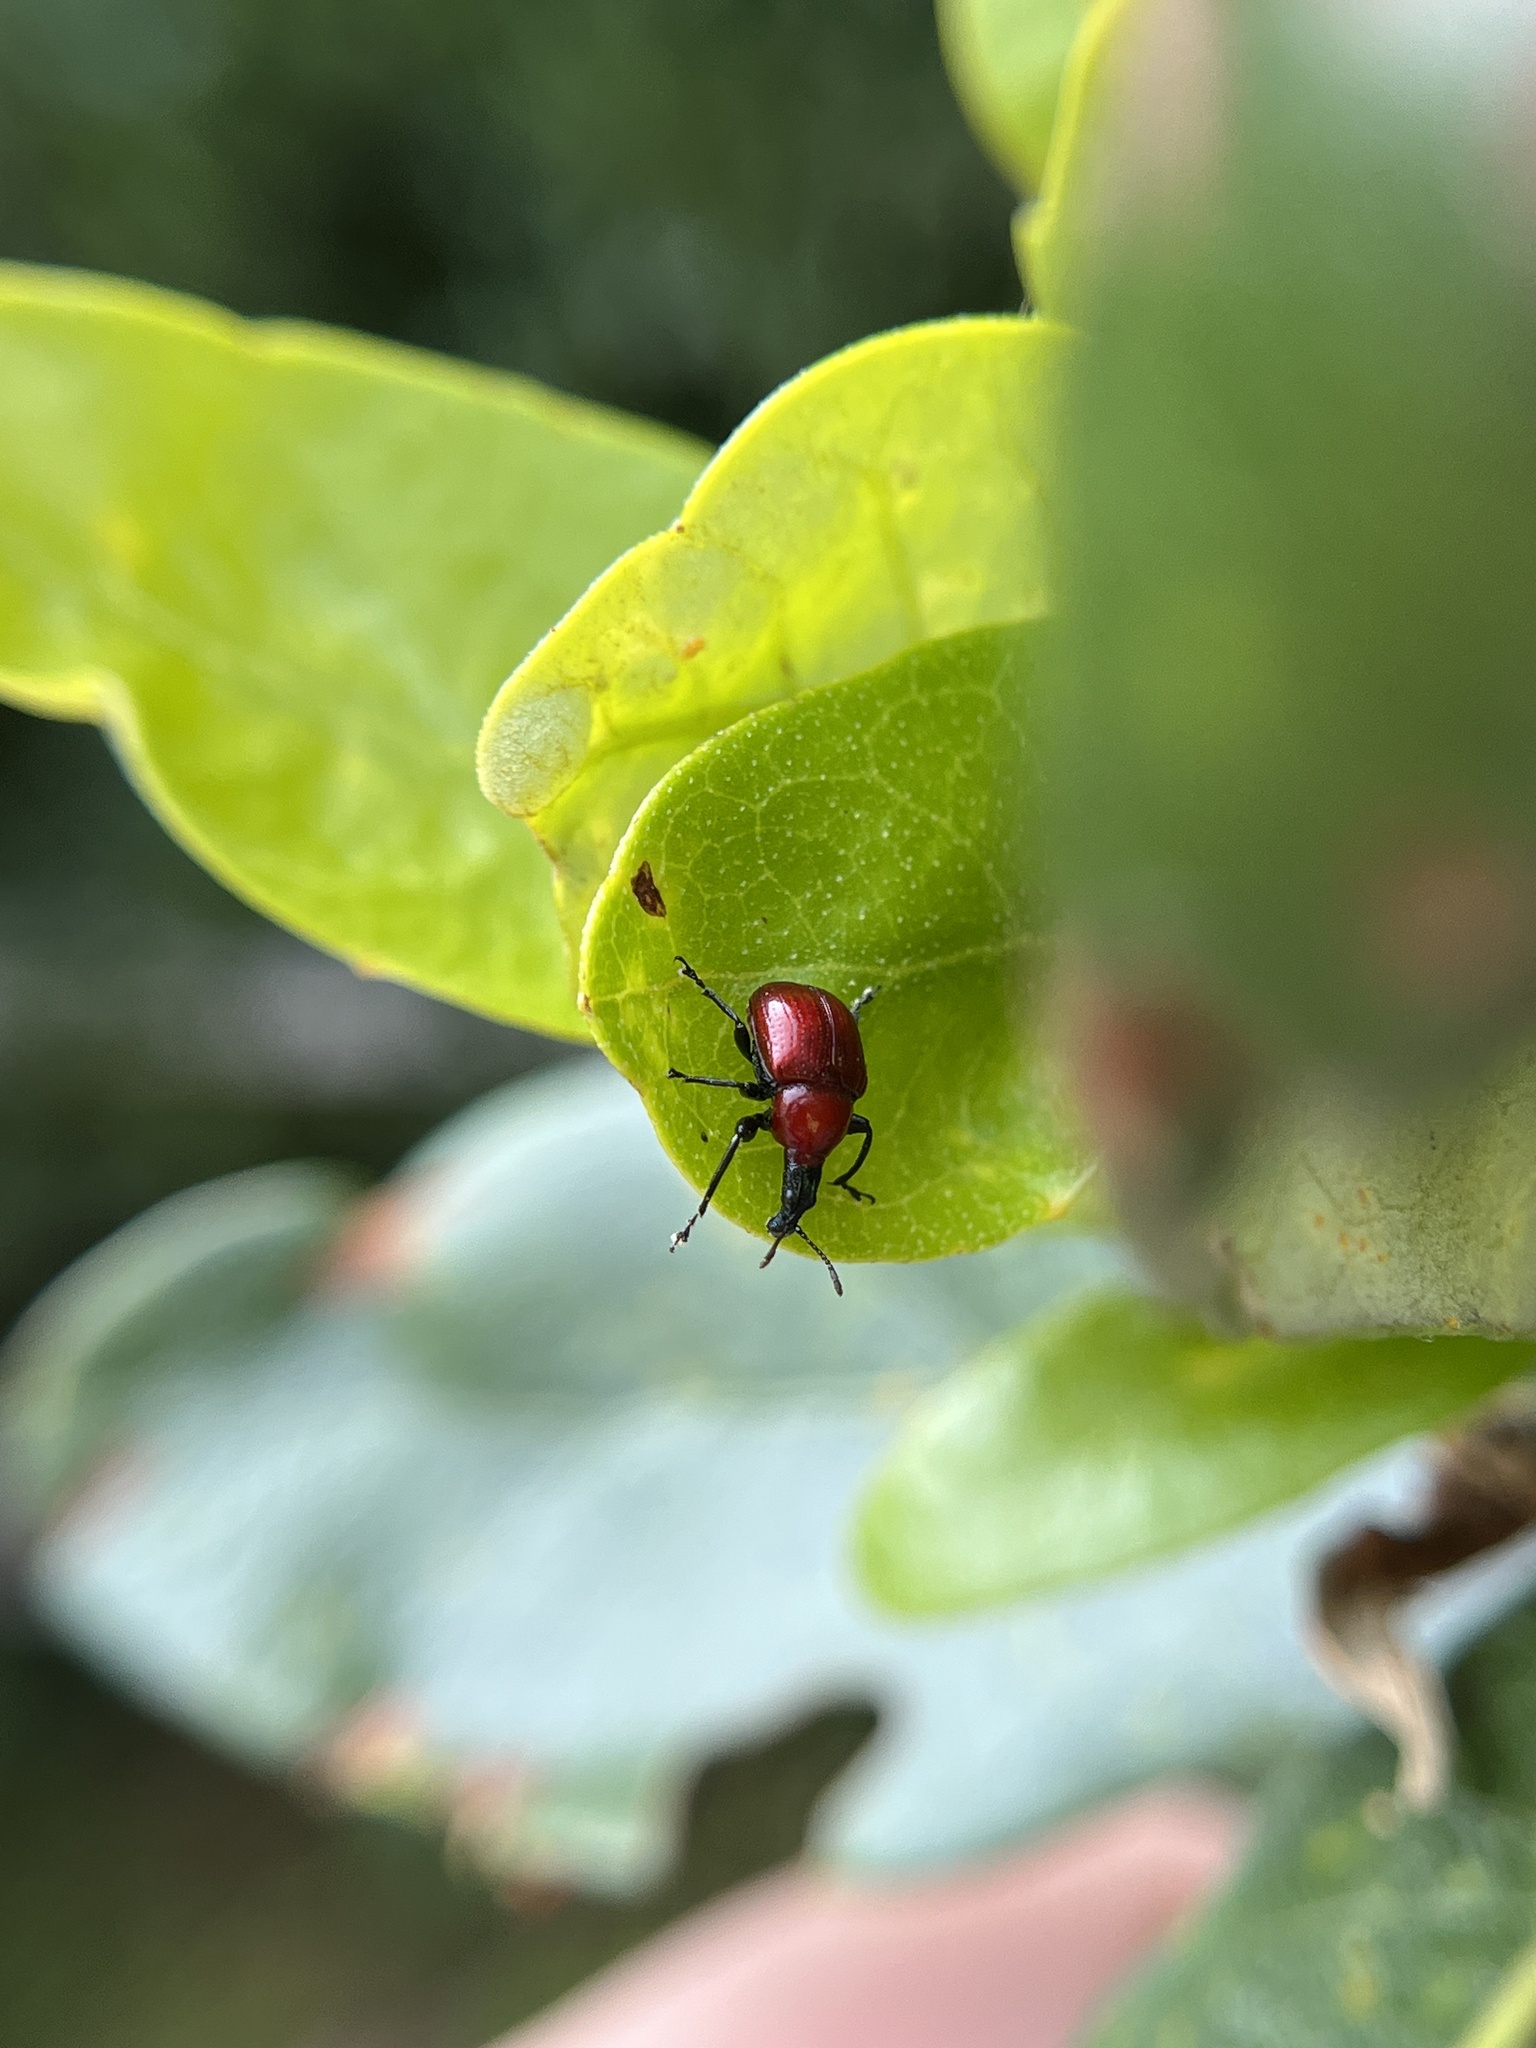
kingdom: Animalia
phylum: Arthropoda
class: Insecta
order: Coleoptera
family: Attelabidae
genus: Homoeolabus
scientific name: Homoeolabus analis
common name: Oak leaf rolling weevil
